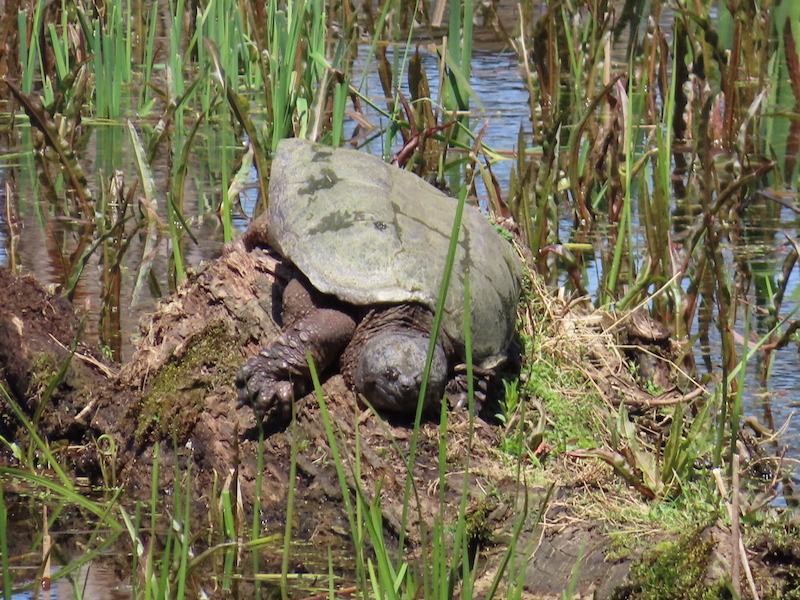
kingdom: Animalia
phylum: Chordata
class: Testudines
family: Chelydridae
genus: Chelydra
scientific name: Chelydra serpentina
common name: Common snapping turtle
